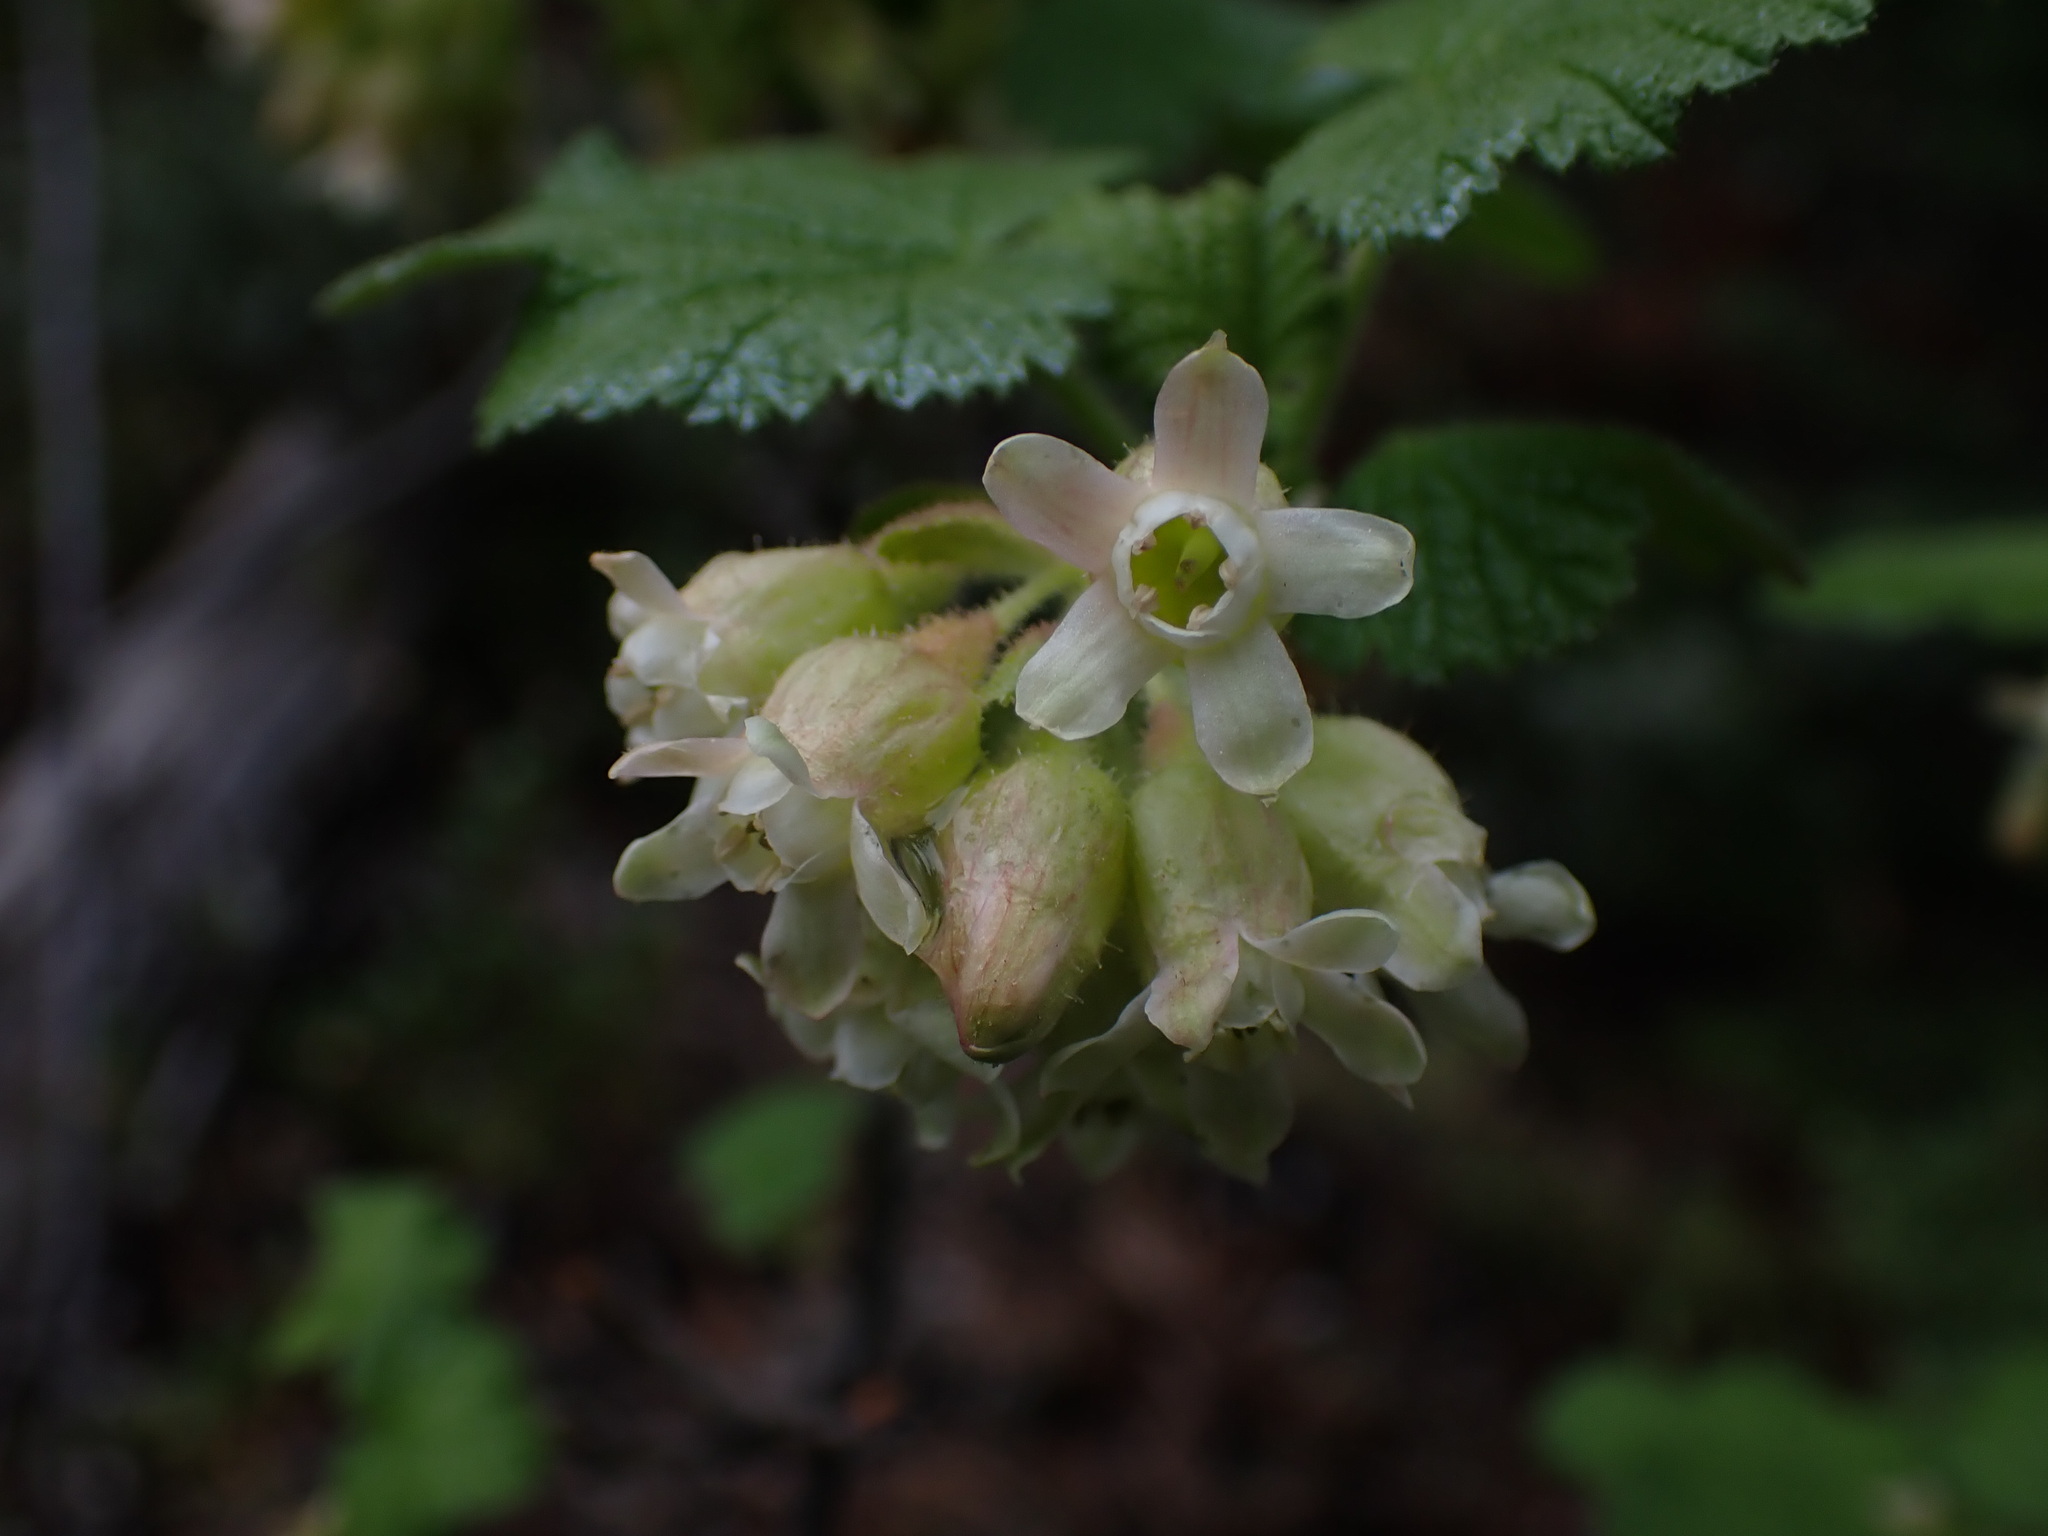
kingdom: Plantae
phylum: Tracheophyta
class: Magnoliopsida
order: Saxifragales
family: Grossulariaceae
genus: Ribes
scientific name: Ribes viscosissimum
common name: Sticky currant
